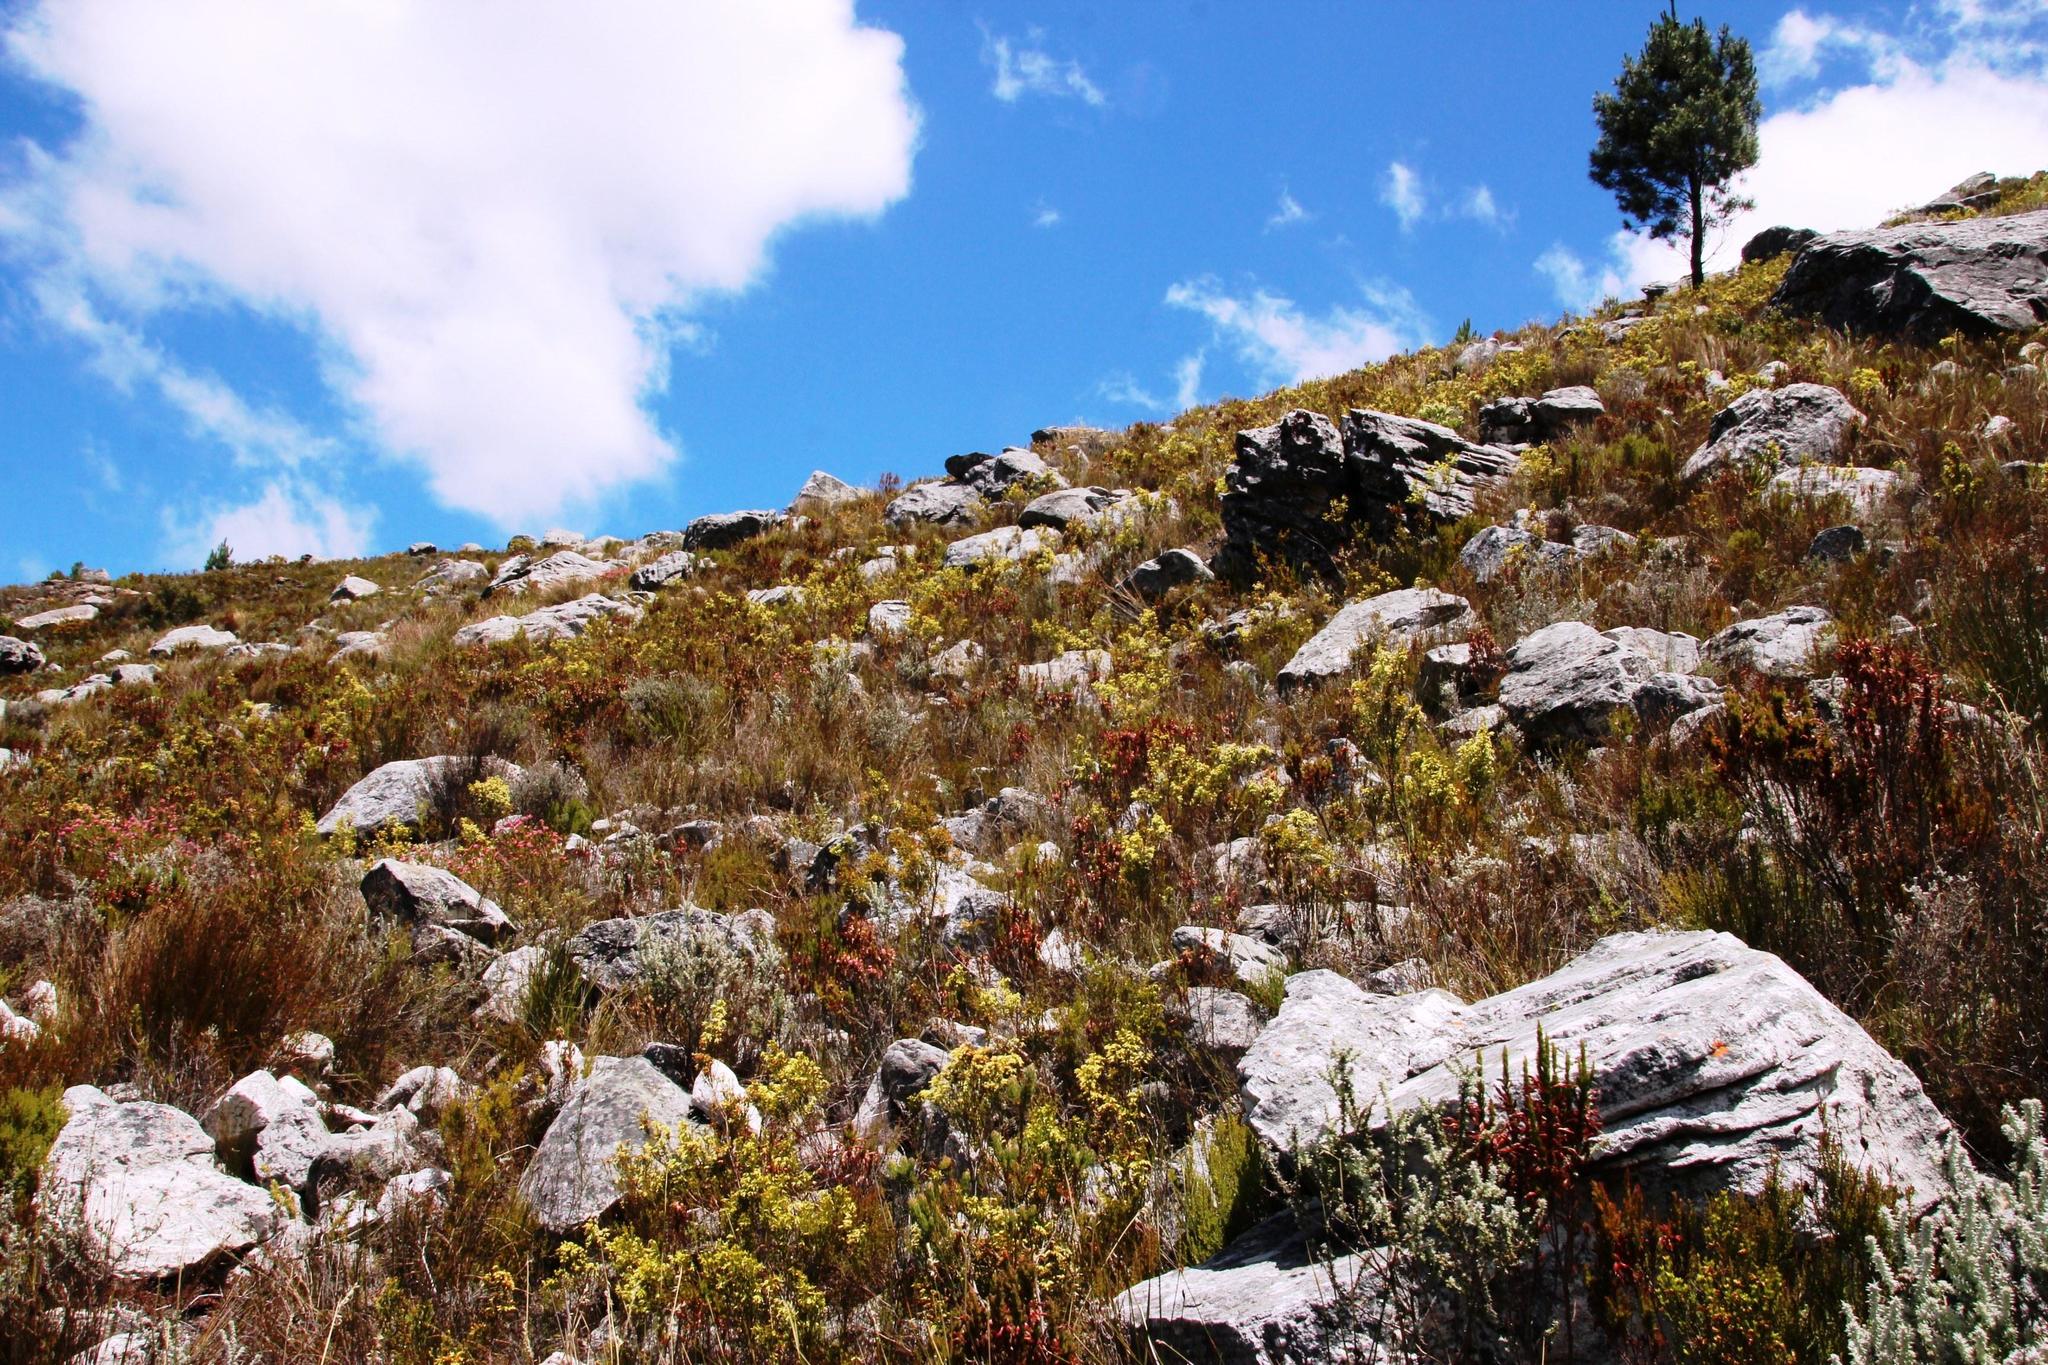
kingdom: Plantae
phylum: Tracheophyta
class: Magnoliopsida
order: Ericales
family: Ericaceae
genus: Erica
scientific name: Erica lutea
